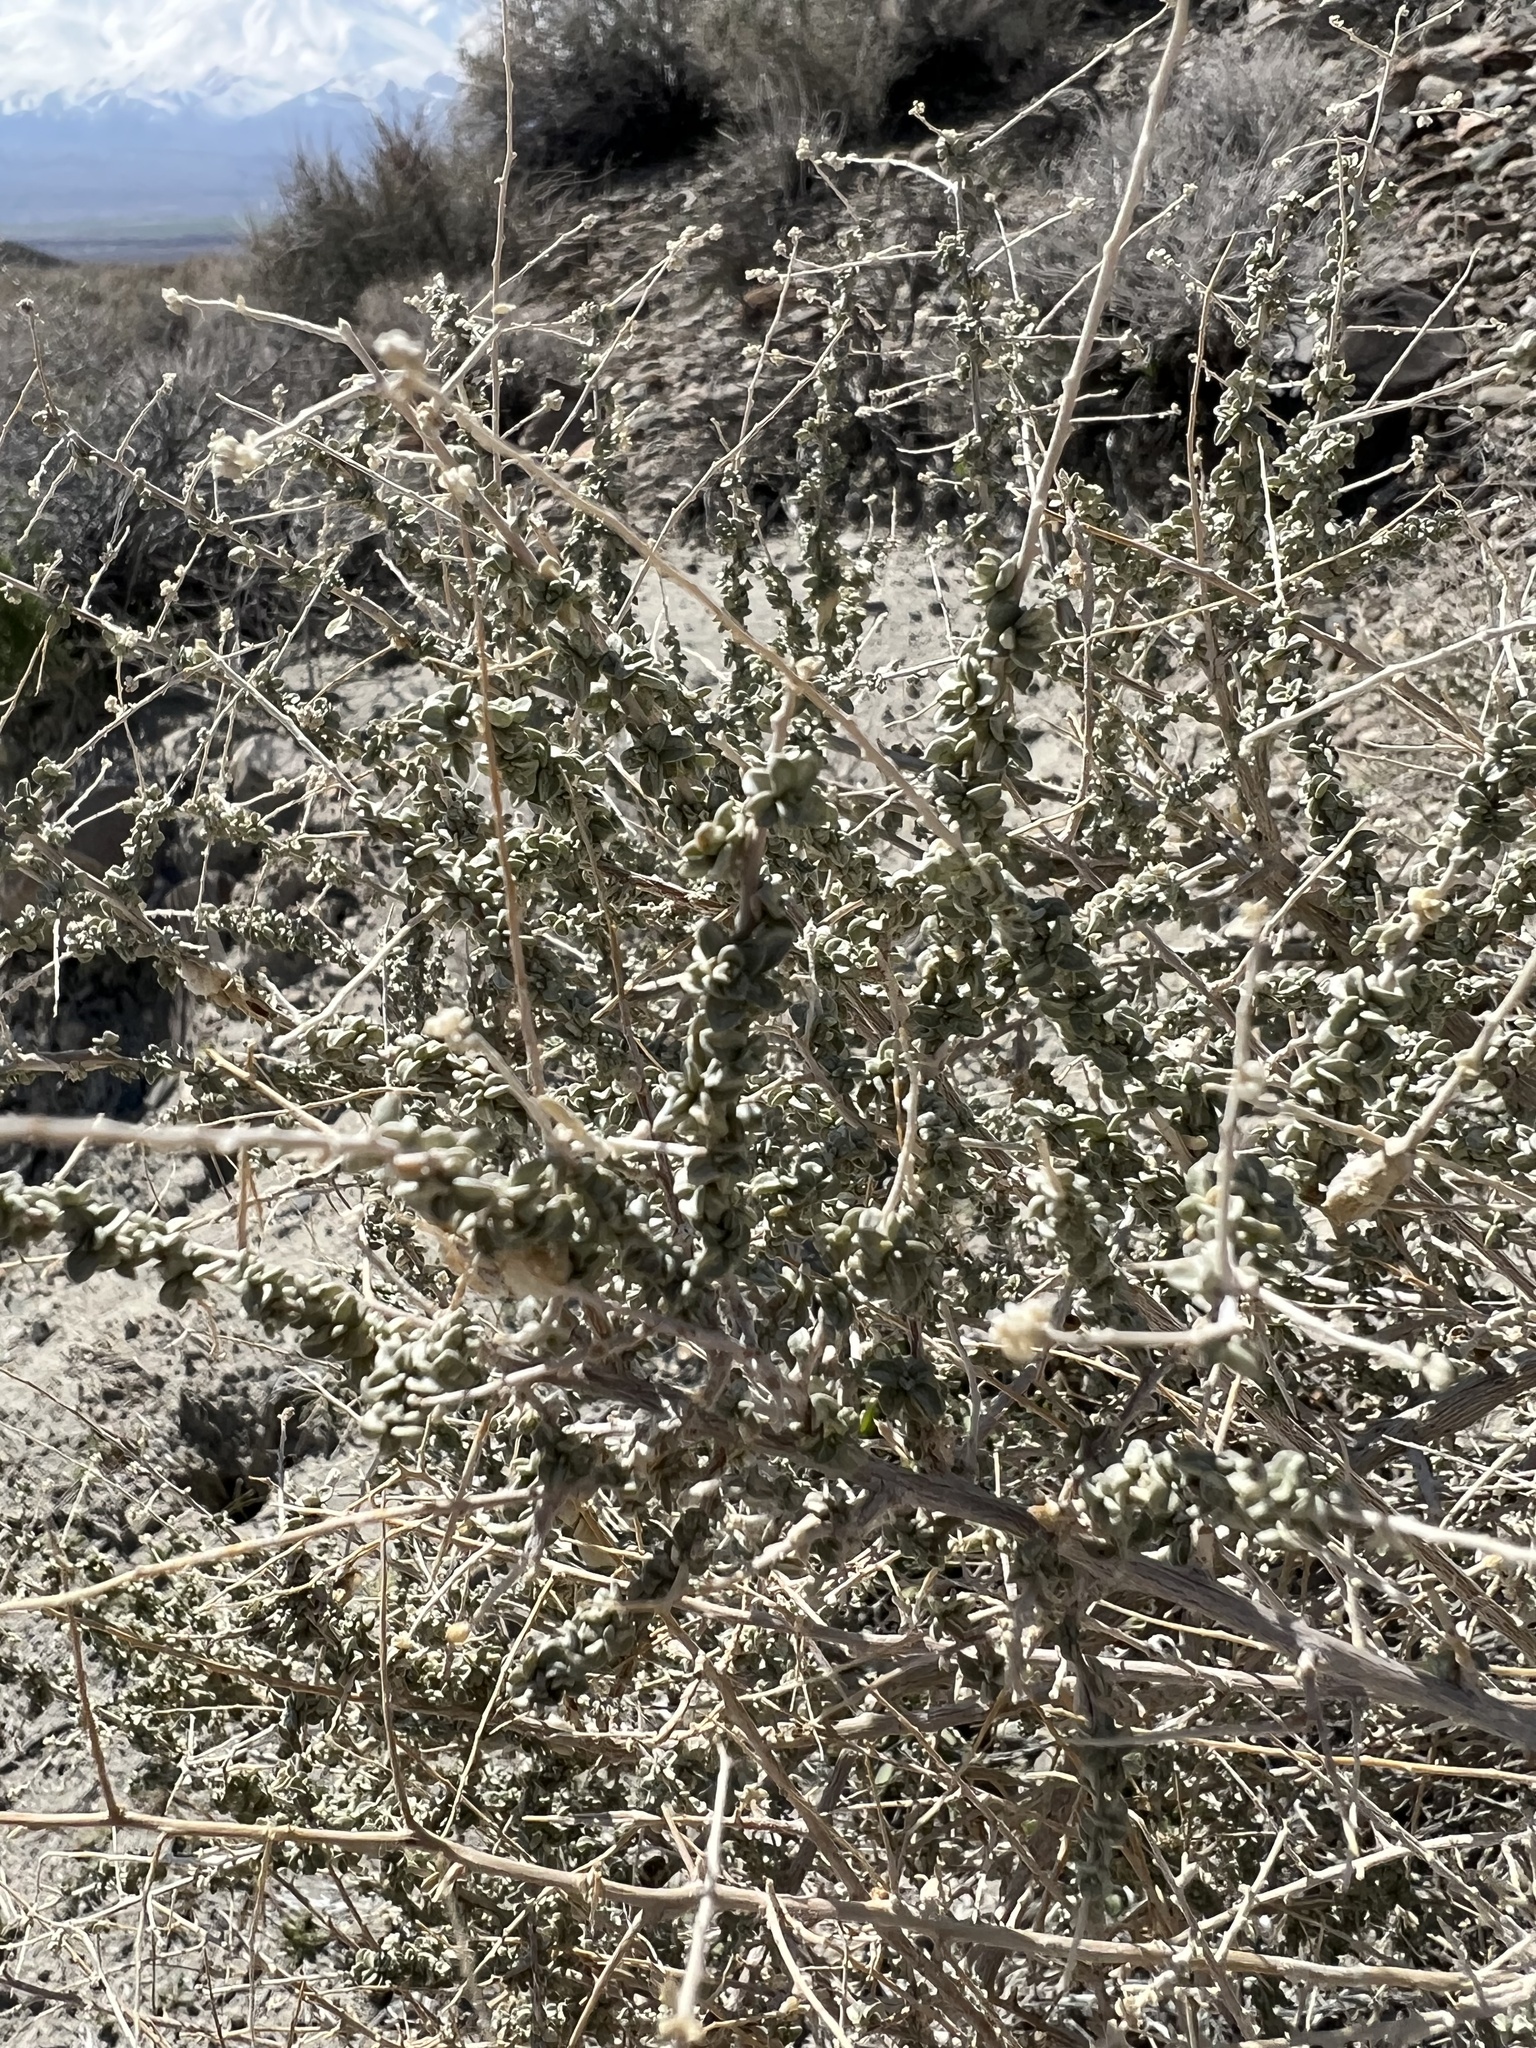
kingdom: Plantae
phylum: Tracheophyta
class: Magnoliopsida
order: Caryophyllales
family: Amaranthaceae
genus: Atriplex
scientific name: Atriplex polycarpa
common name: Desert saltbush
